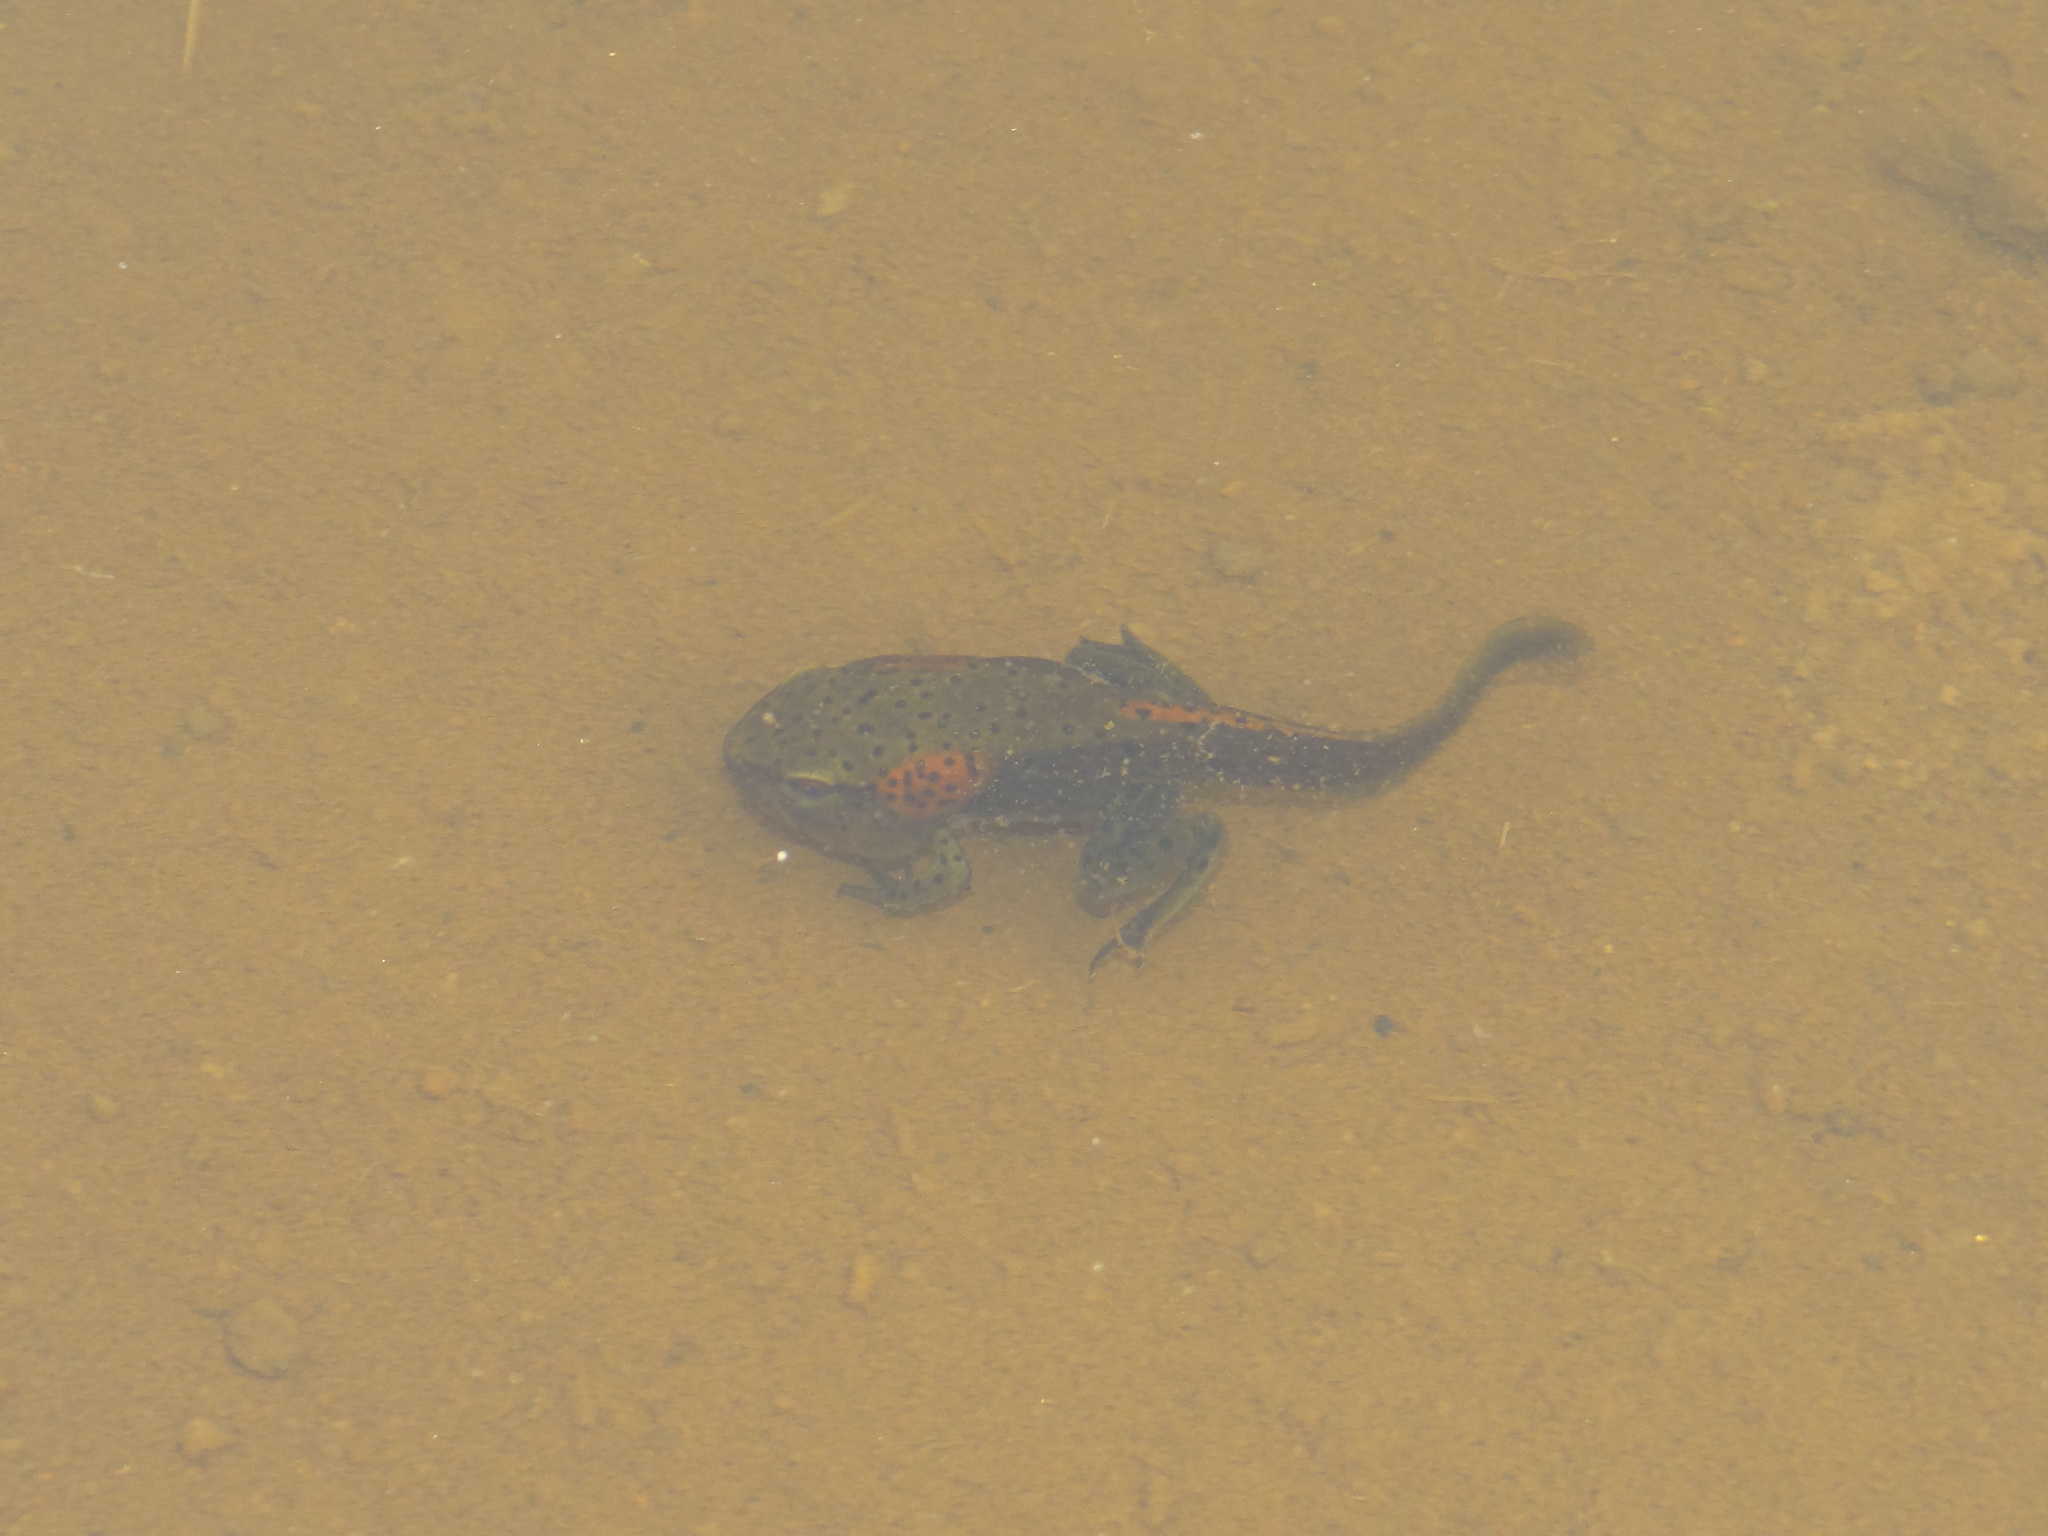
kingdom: Animalia
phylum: Chordata
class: Amphibia
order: Anura
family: Ranidae
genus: Clinotarsus
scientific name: Clinotarsus curtipes
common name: Bicoloured frog
